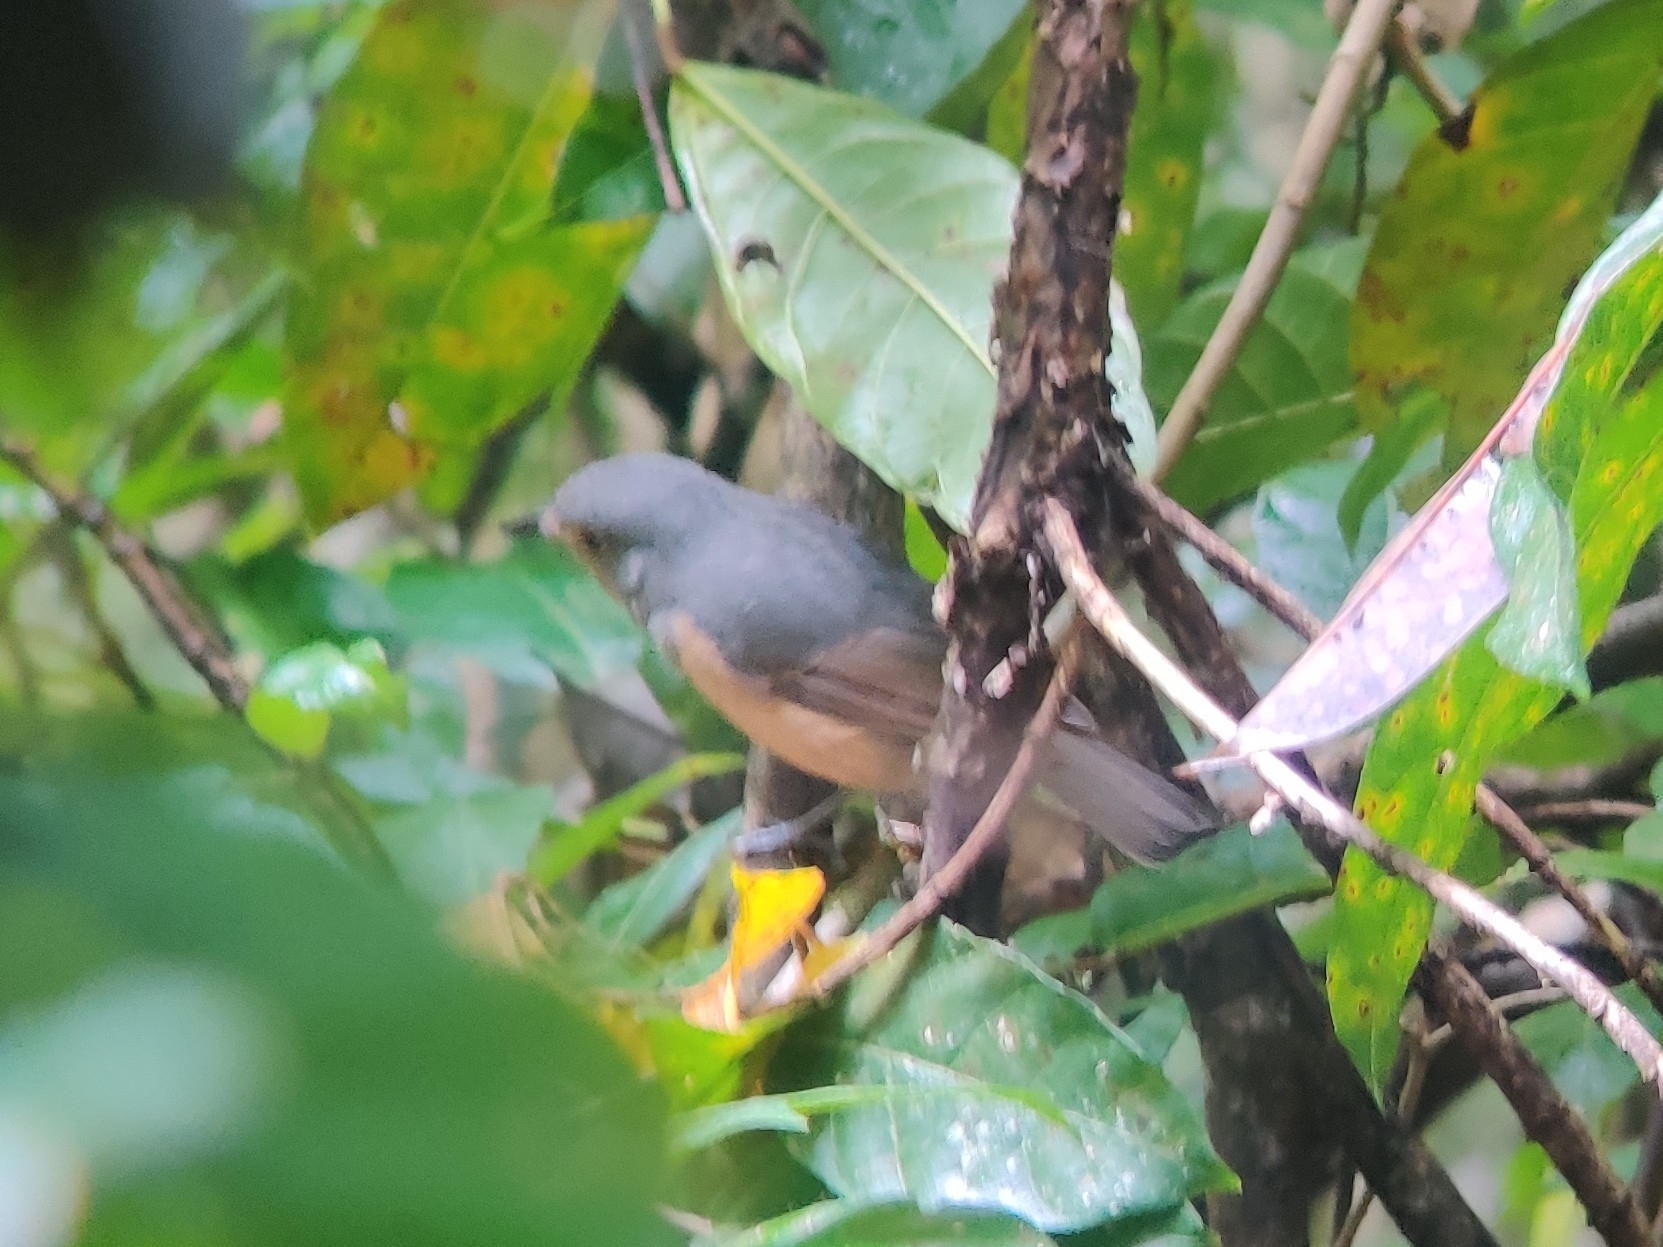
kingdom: Animalia
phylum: Chordata
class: Aves
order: Passeriformes
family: Pachycephalidae
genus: Colluricincla
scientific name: Colluricincla boweri
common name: Bower's shrikethrush
